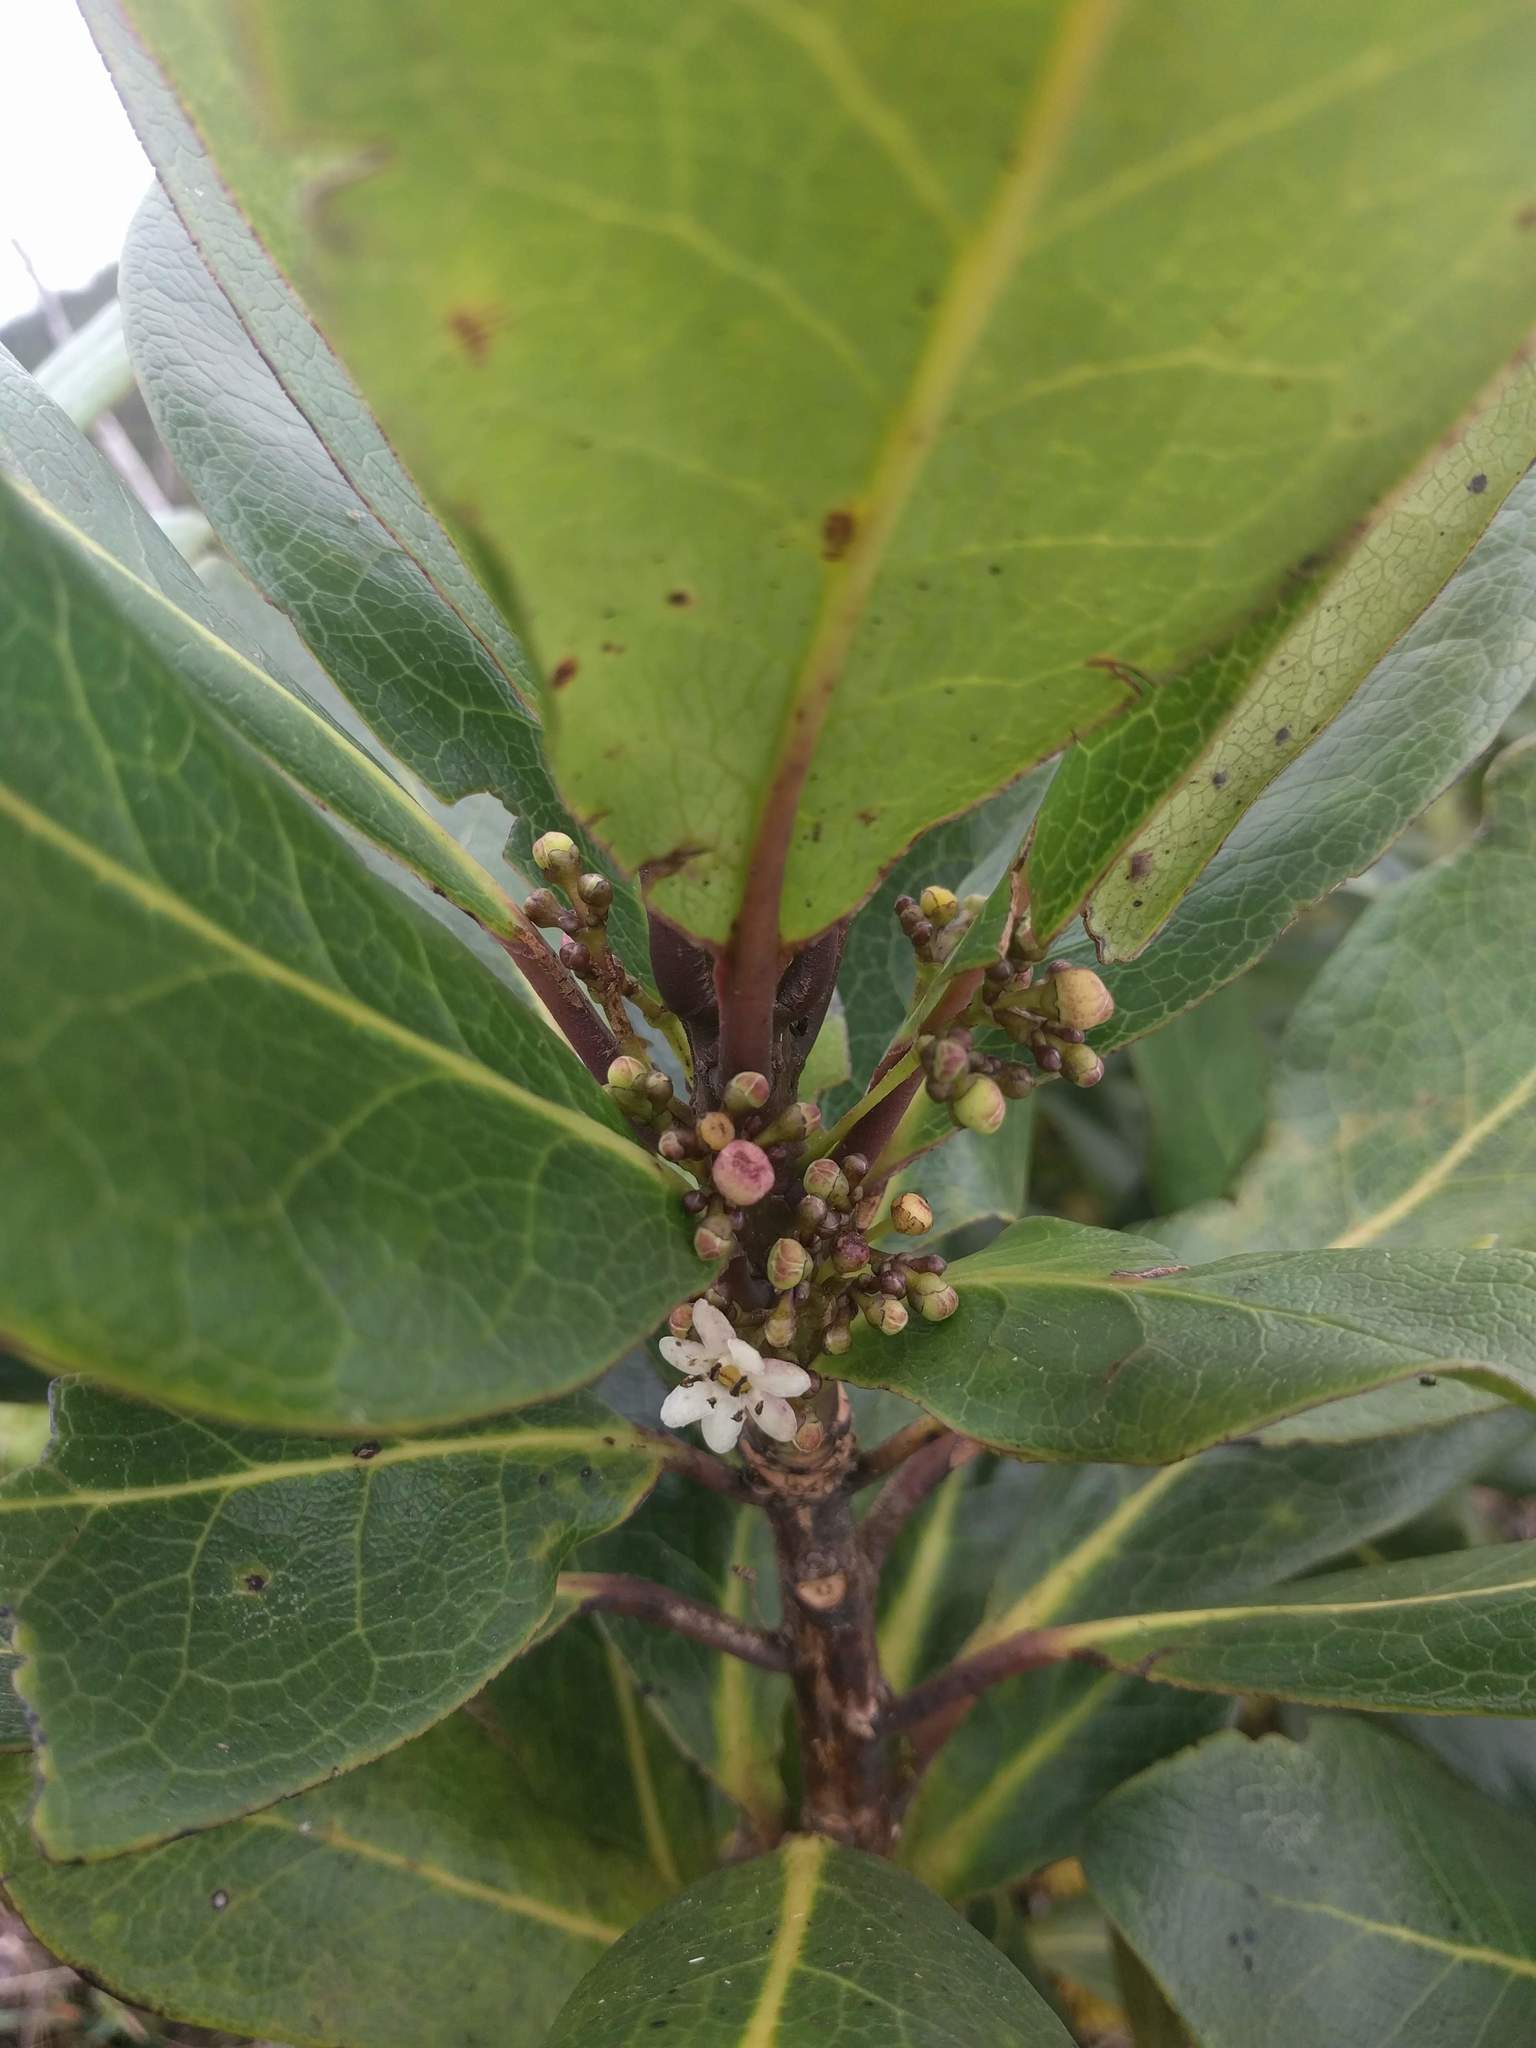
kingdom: Plantae
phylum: Tracheophyta
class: Magnoliopsida
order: Aquifoliales
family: Aquifoliaceae
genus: Ilex
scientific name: Ilex anomala
